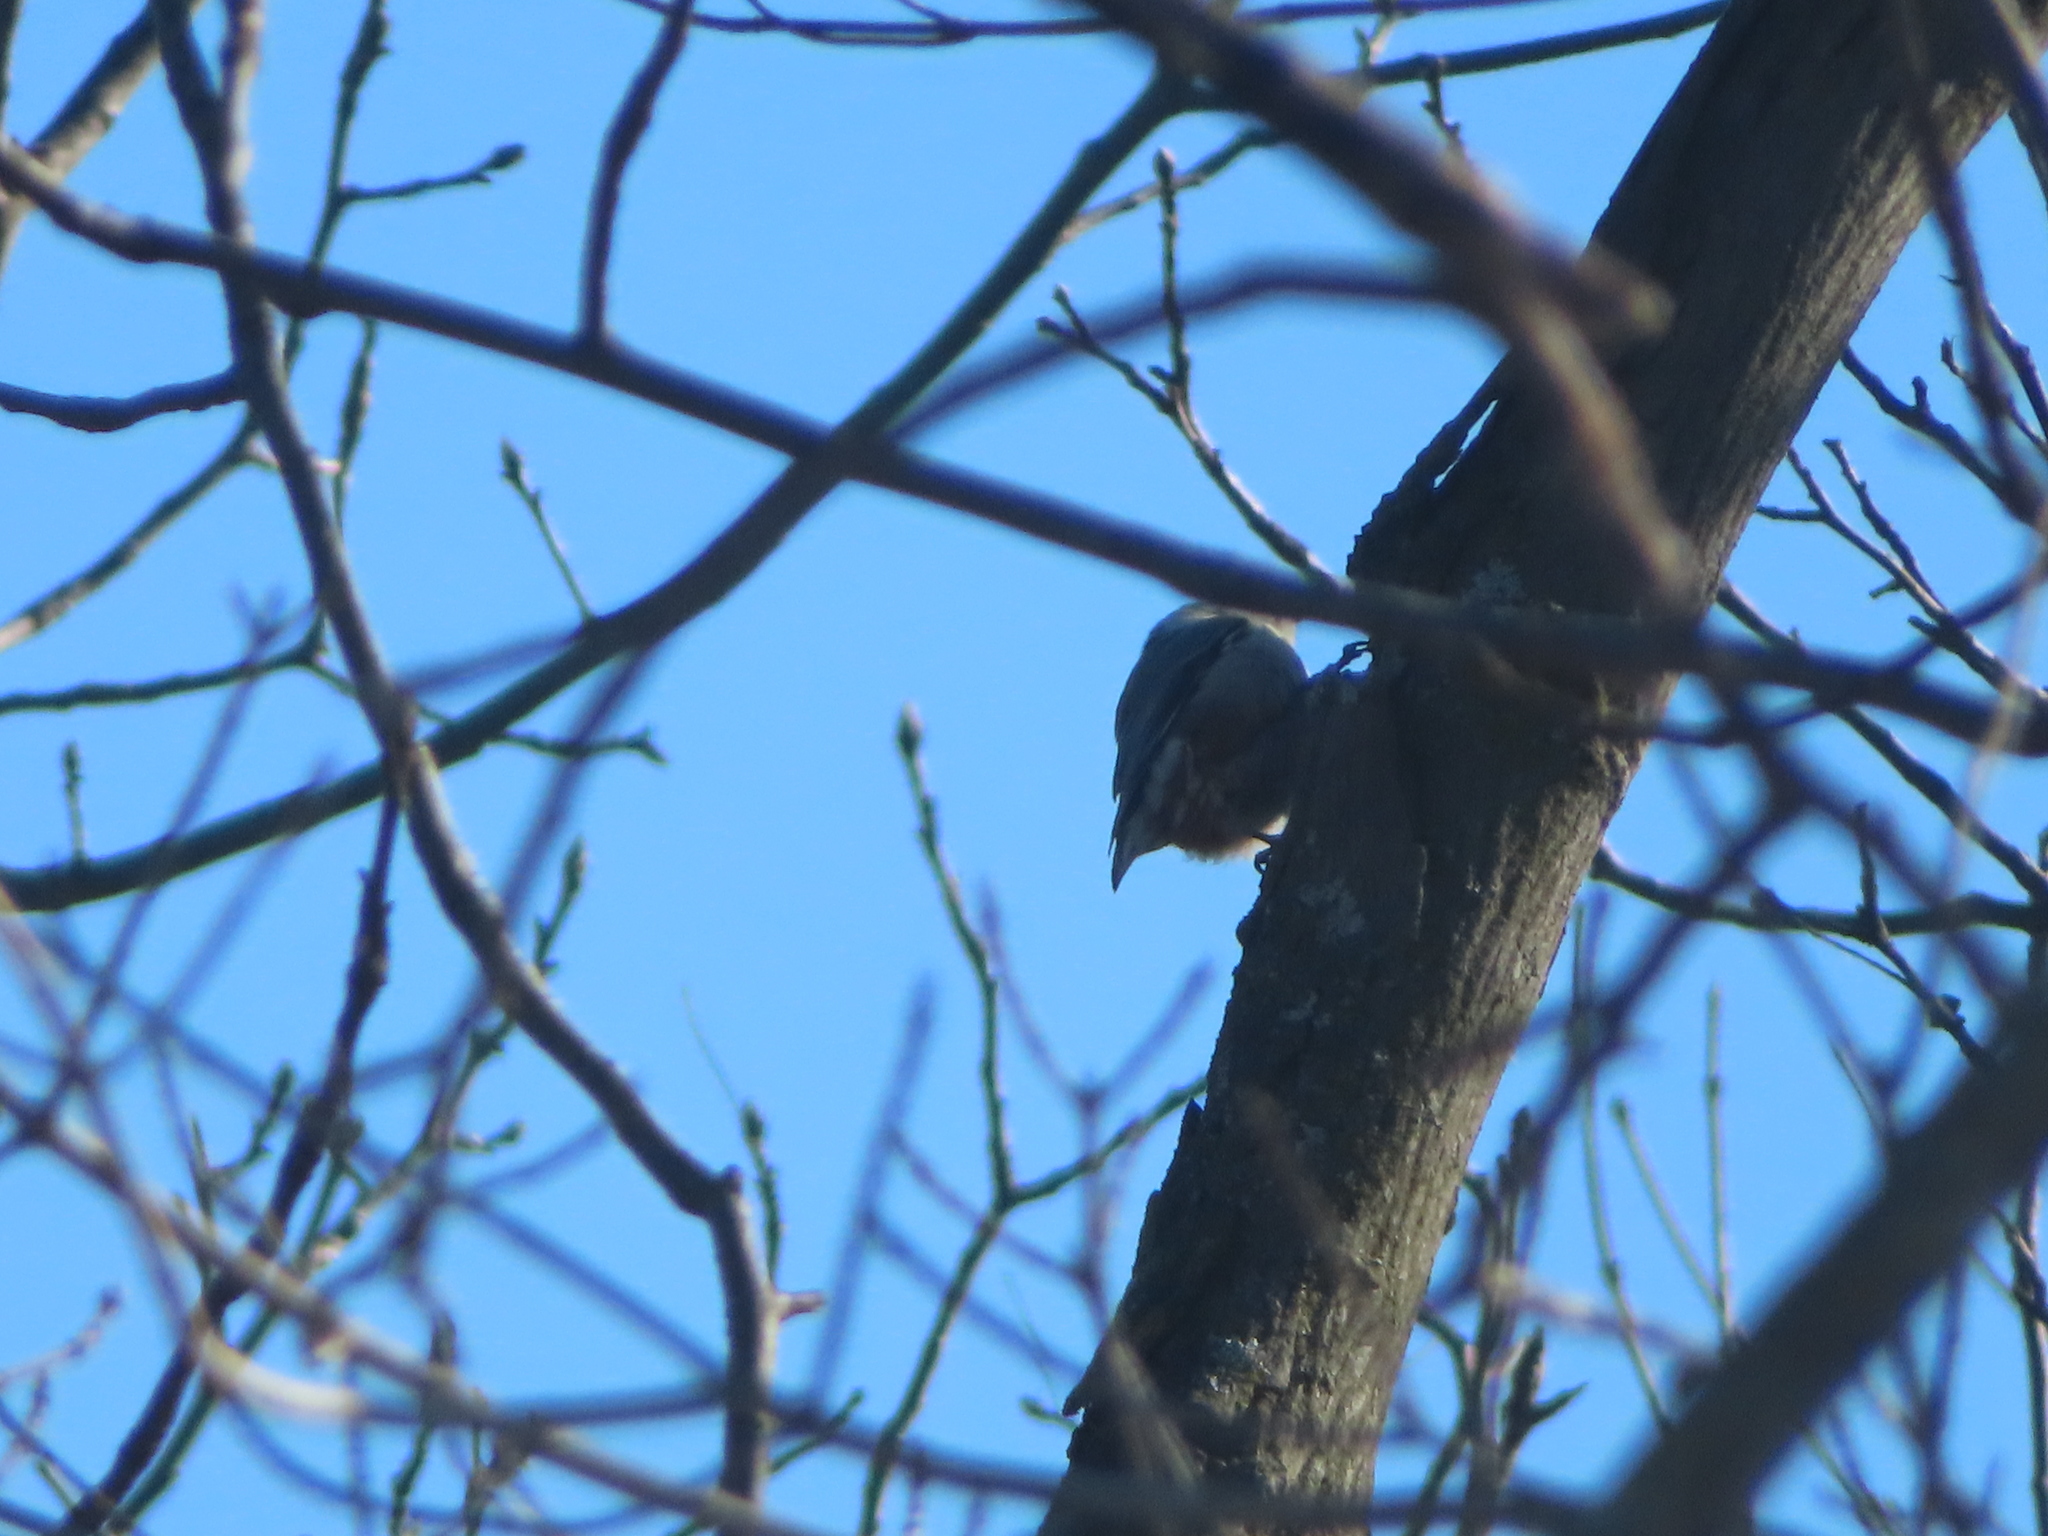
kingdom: Animalia
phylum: Chordata
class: Aves
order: Passeriformes
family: Sittidae
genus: Sitta
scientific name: Sitta carolinensis
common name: White-breasted nuthatch
